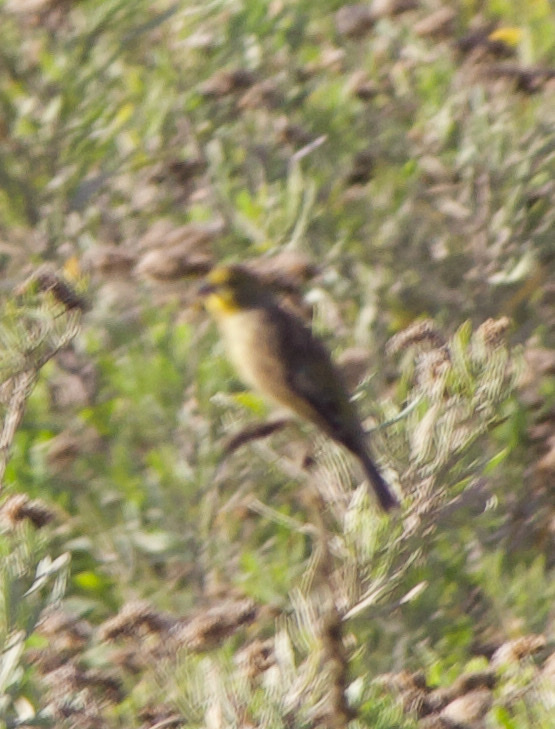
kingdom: Animalia
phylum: Chordata
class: Aves
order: Passeriformes
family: Thraupidae
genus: Sicalis
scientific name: Sicalis luteola
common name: Grassland yellow-finch
